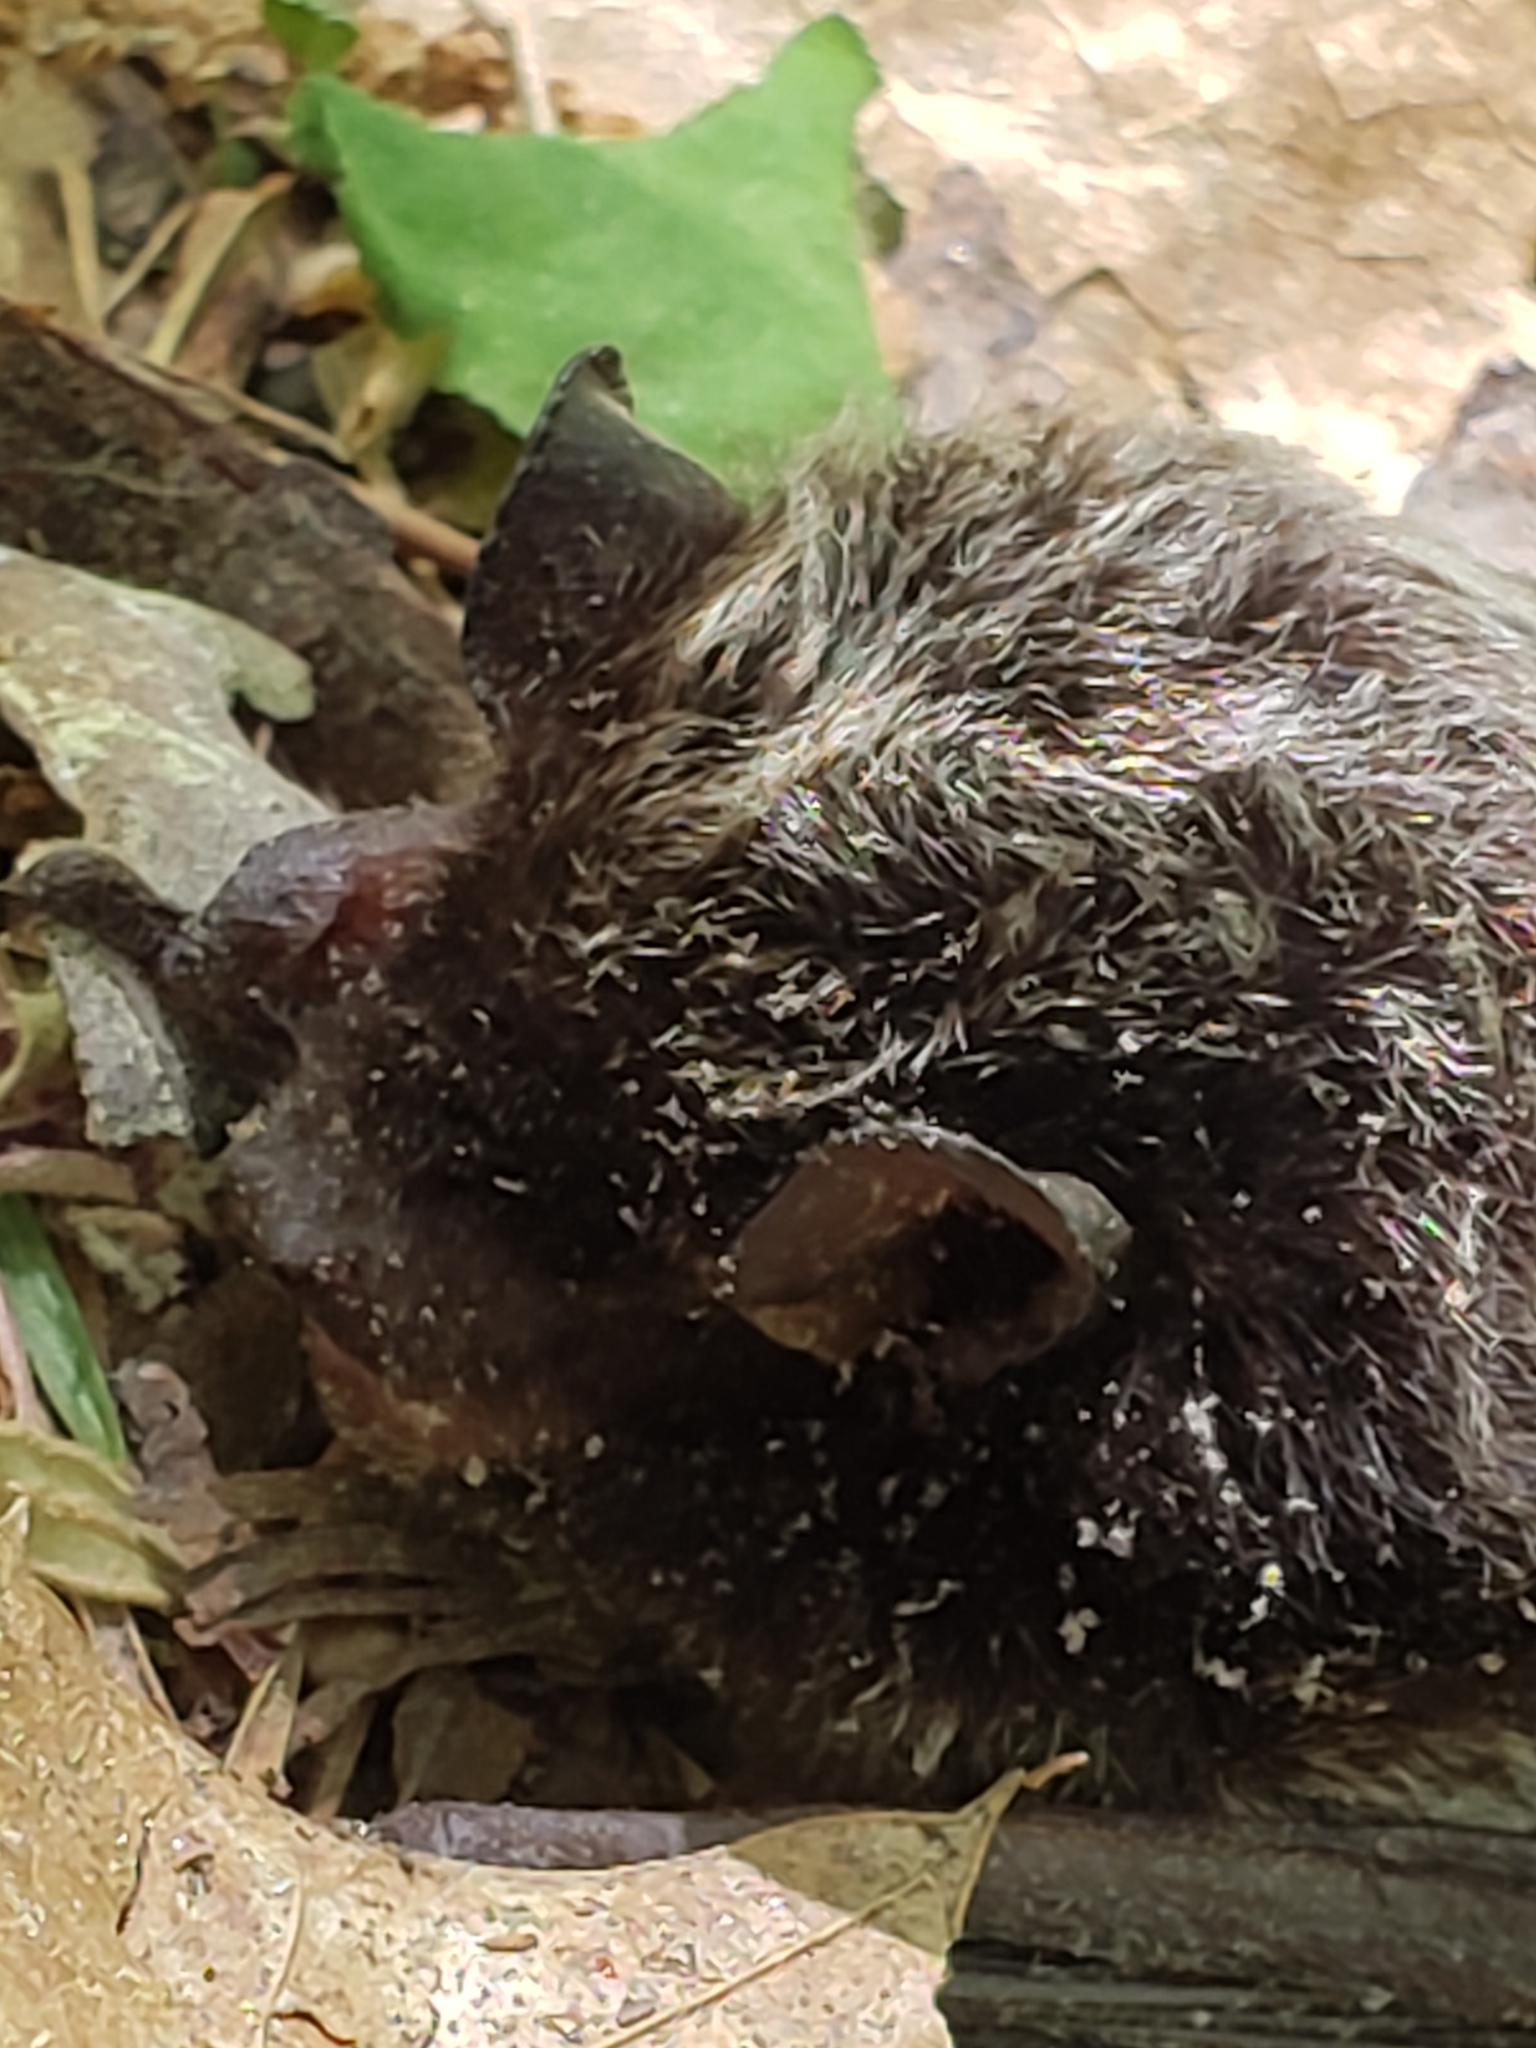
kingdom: Animalia
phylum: Chordata
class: Mammalia
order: Chiroptera
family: Vespertilionidae
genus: Lasionycteris
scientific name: Lasionycteris noctivagans
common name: Silver-haired bat
